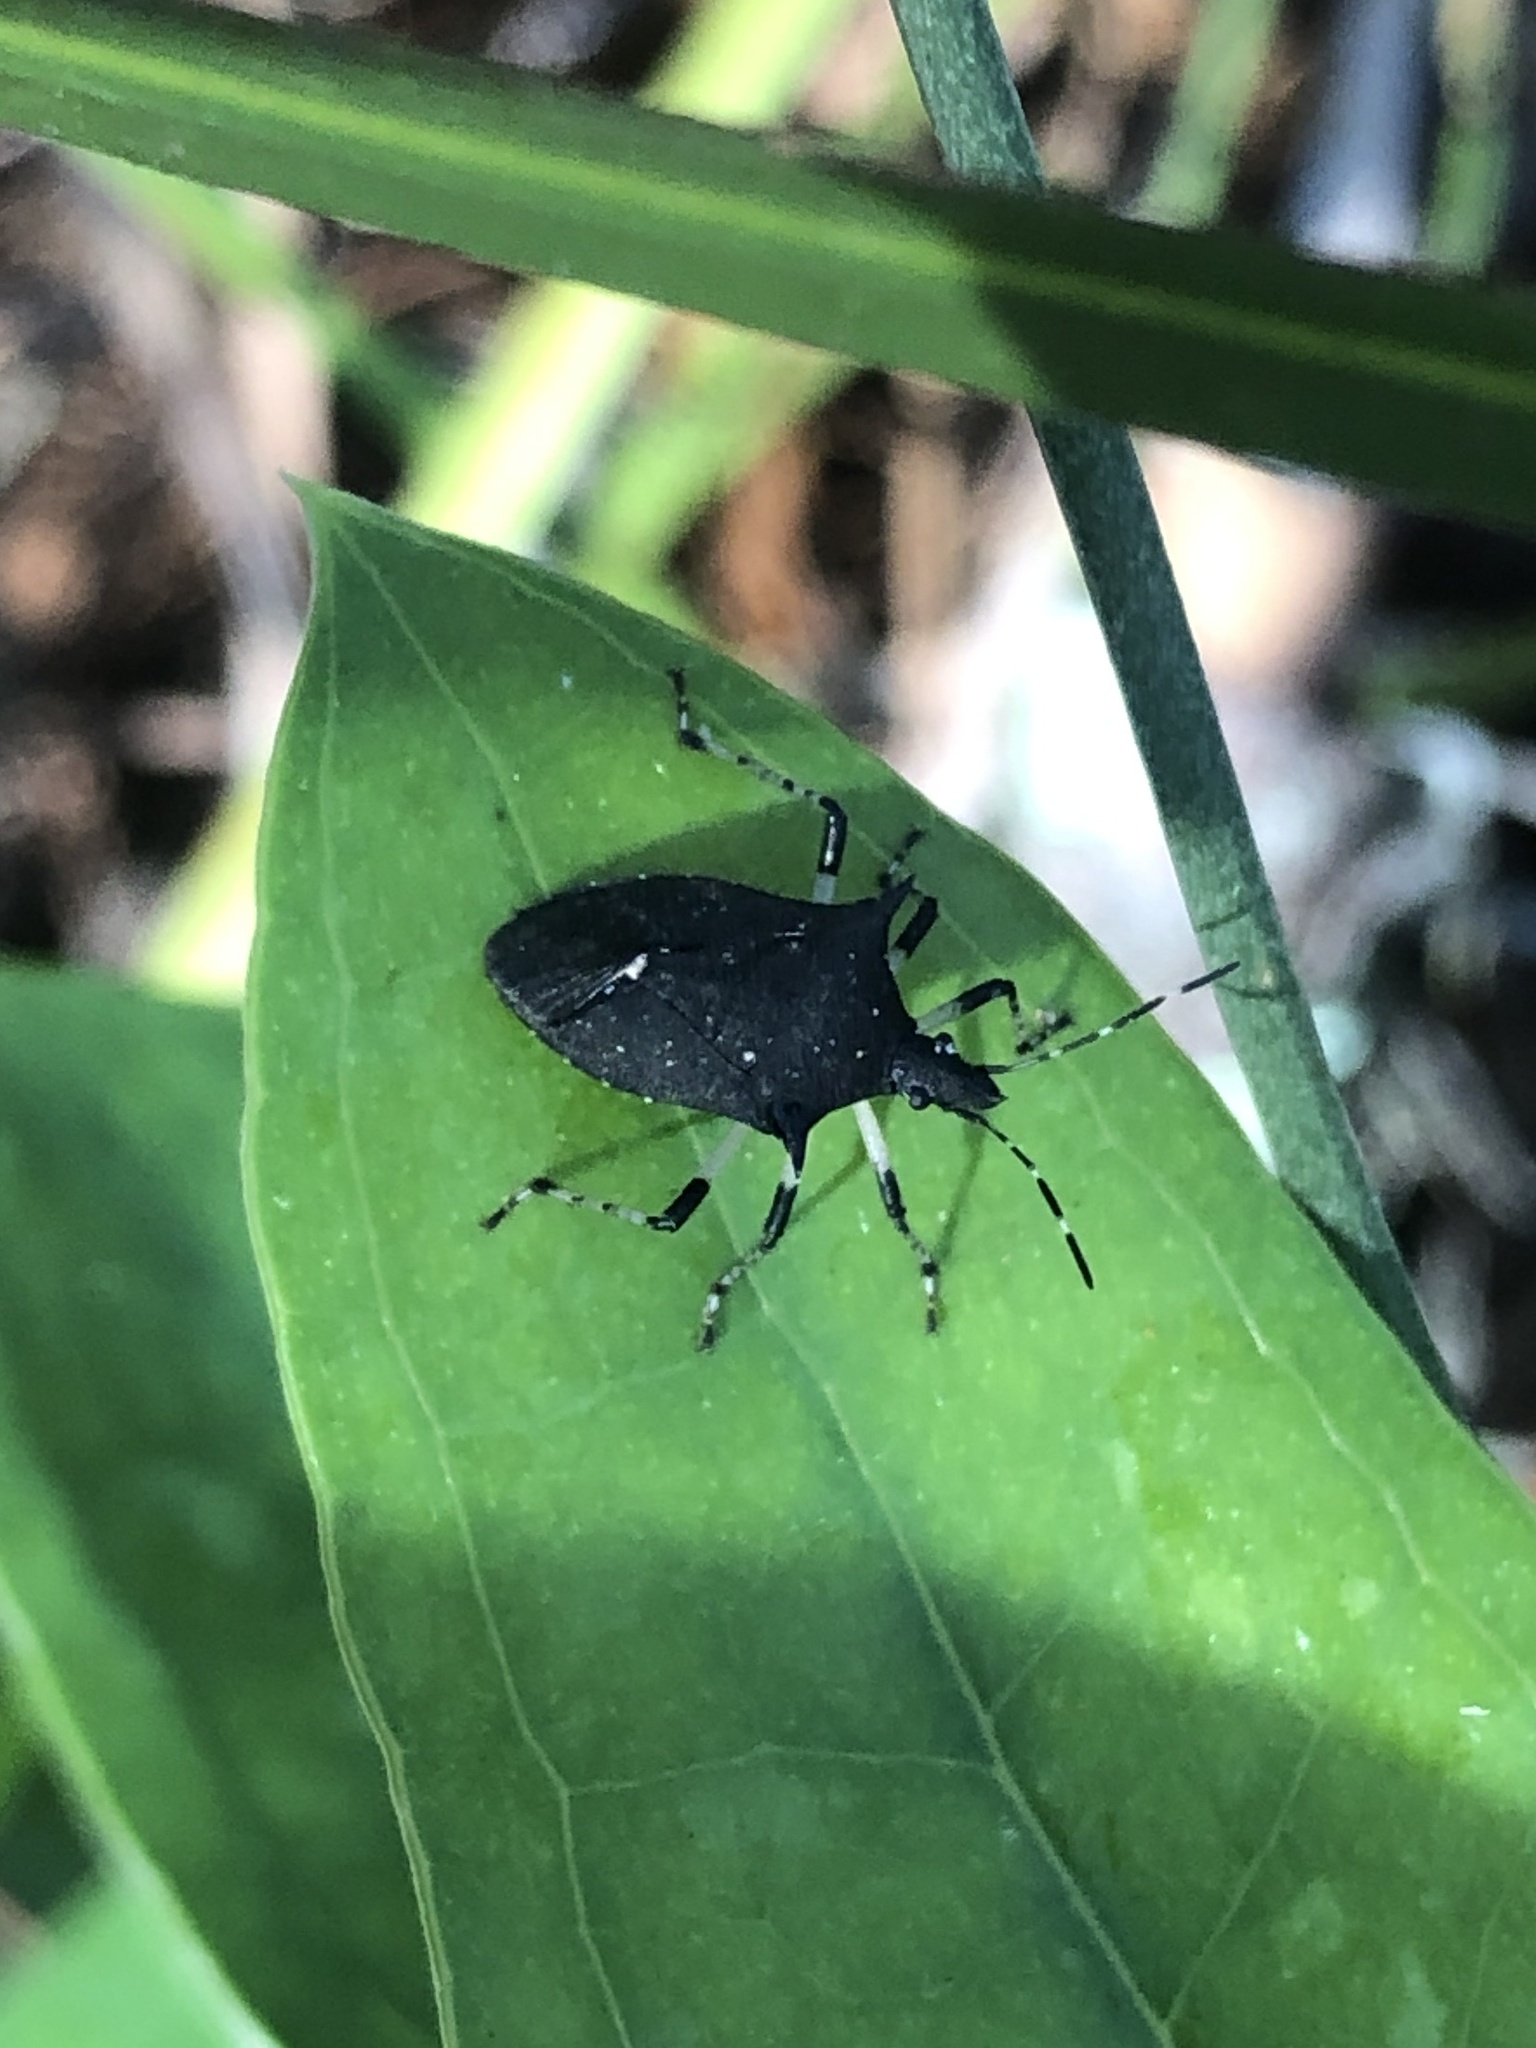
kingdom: Animalia
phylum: Arthropoda
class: Insecta
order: Hemiptera
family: Pentatomidae
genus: Proxys
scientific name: Proxys punctulatus
